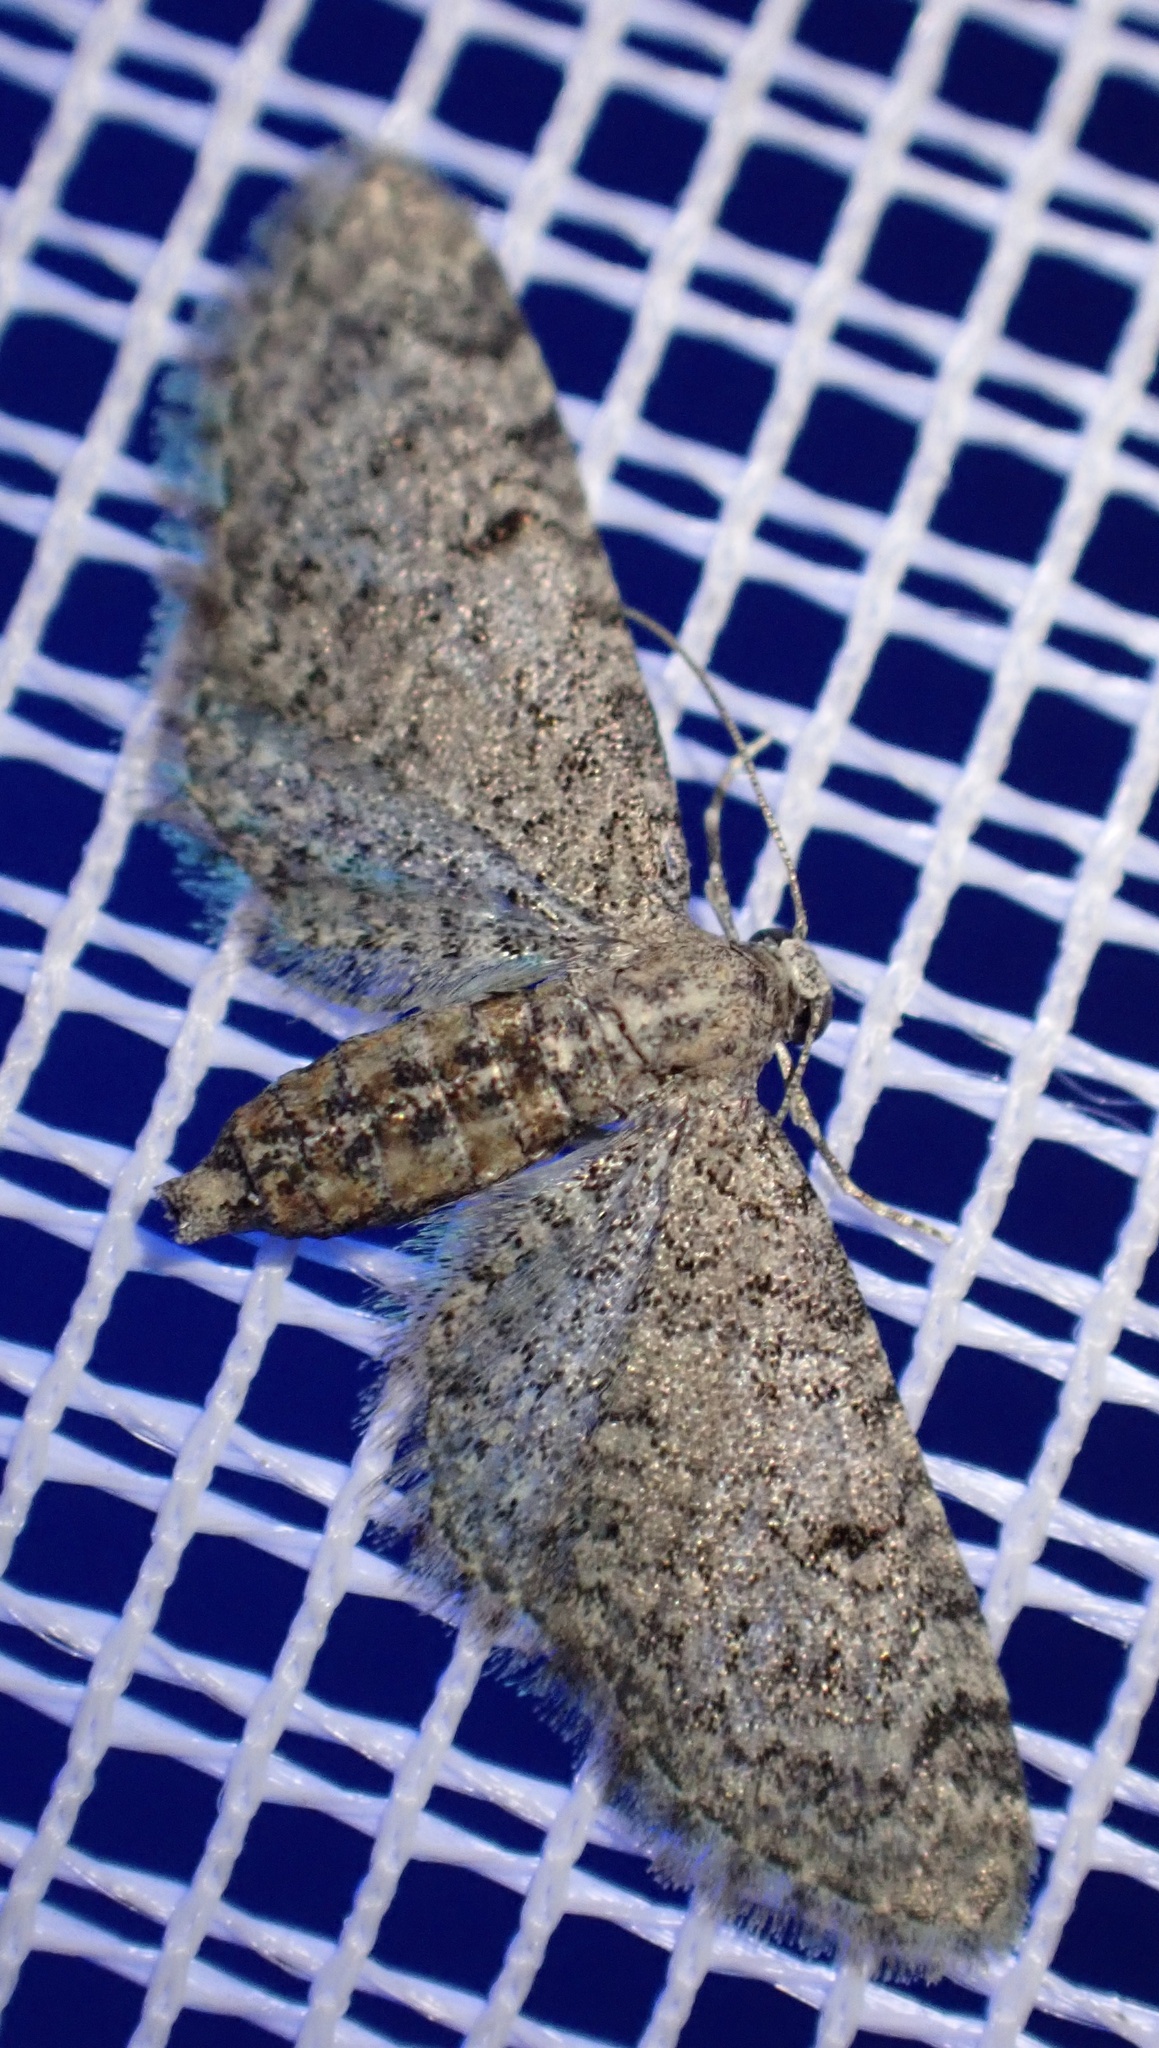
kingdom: Animalia
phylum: Arthropoda
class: Insecta
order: Lepidoptera
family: Geometridae
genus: Eupithecia
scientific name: Eupithecia ultimaria
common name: Channel islands pug
